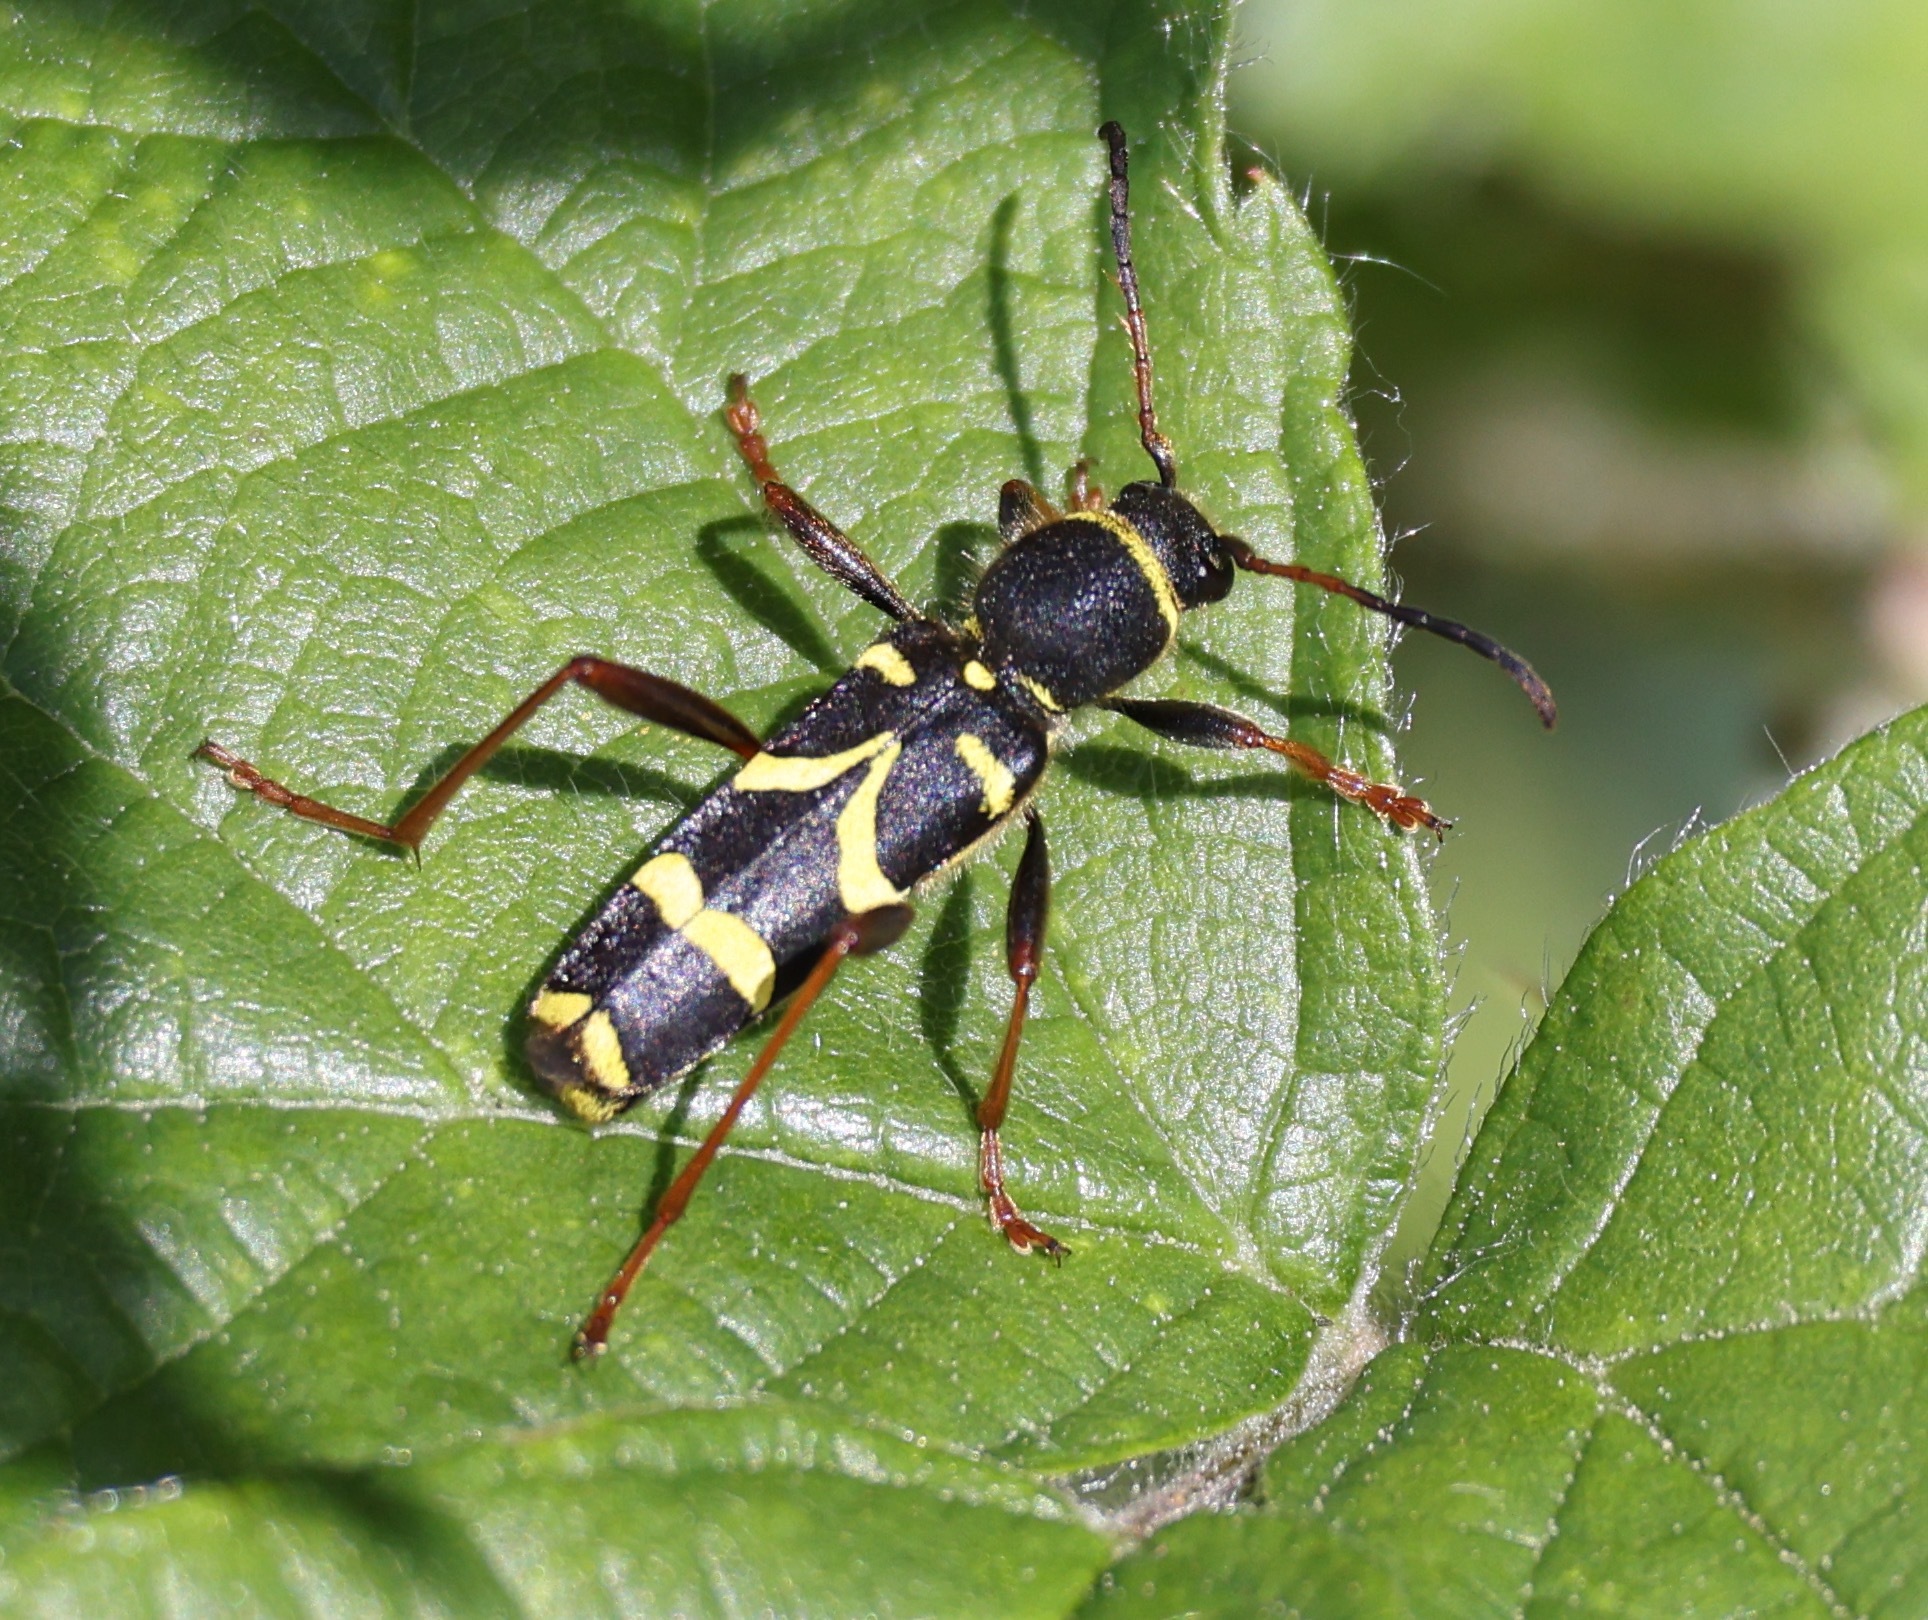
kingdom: Animalia
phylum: Arthropoda
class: Insecta
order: Coleoptera
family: Cerambycidae
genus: Clytus
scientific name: Clytus arietis
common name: Wasp beetle
